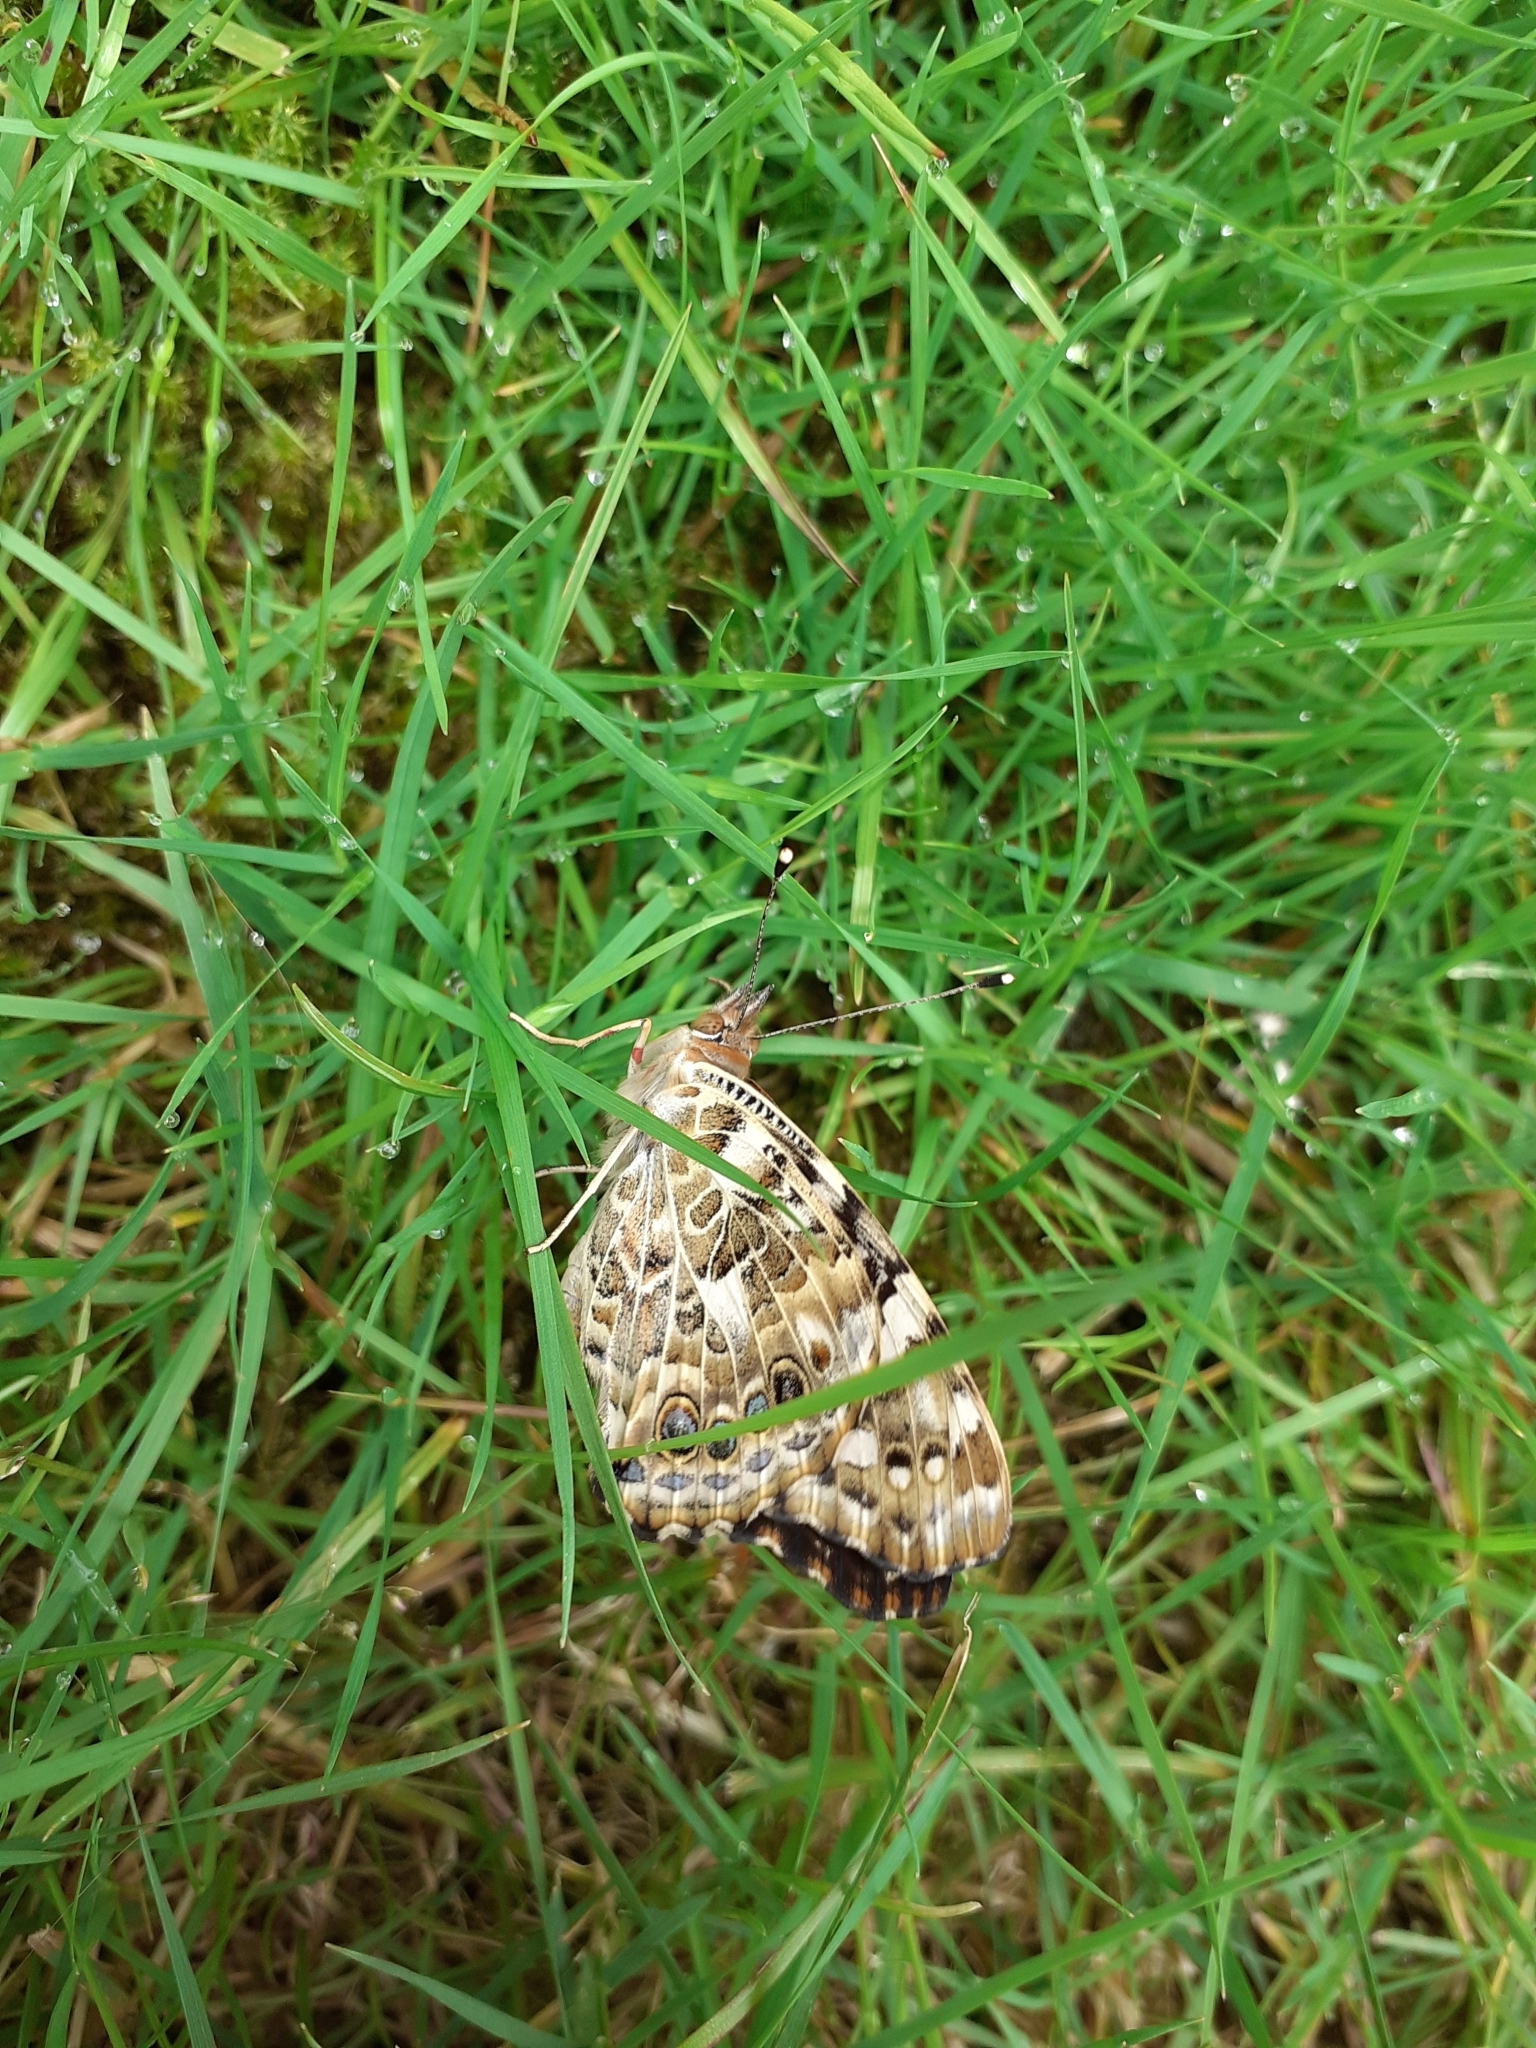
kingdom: Animalia
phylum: Arthropoda
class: Insecta
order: Lepidoptera
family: Nymphalidae
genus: Vanessa
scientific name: Vanessa cardui
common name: Painted lady
